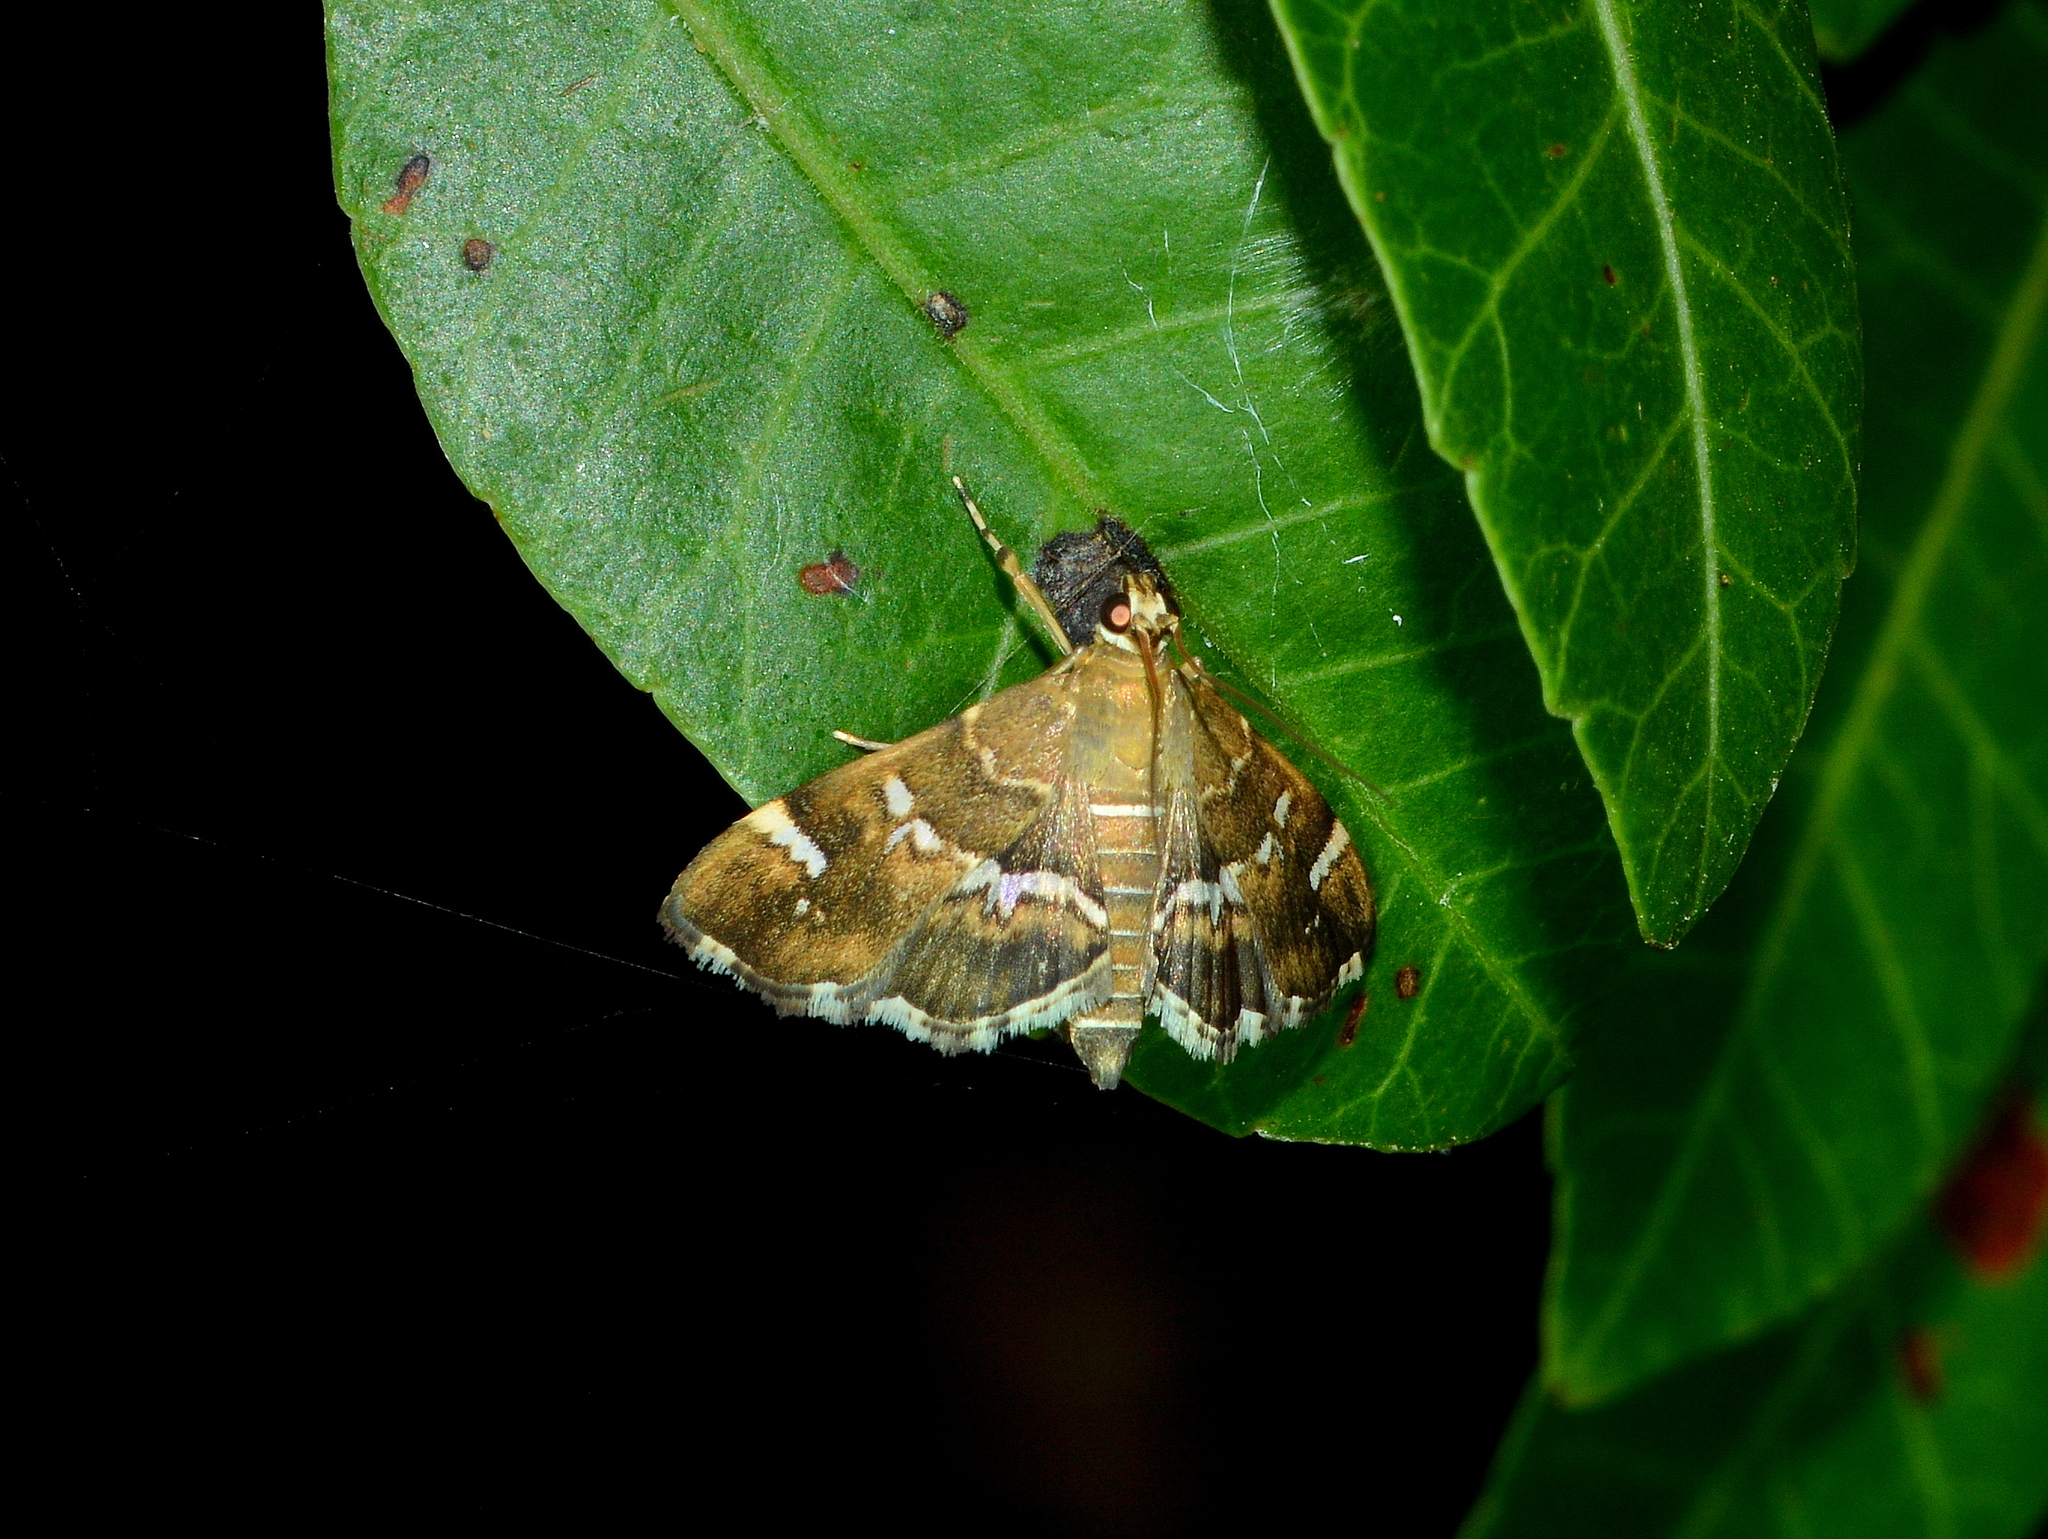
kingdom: Animalia
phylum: Arthropoda
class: Insecta
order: Lepidoptera
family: Crambidae
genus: Hymenia
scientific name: Hymenia perspectalis
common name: Spotted beet webworm
